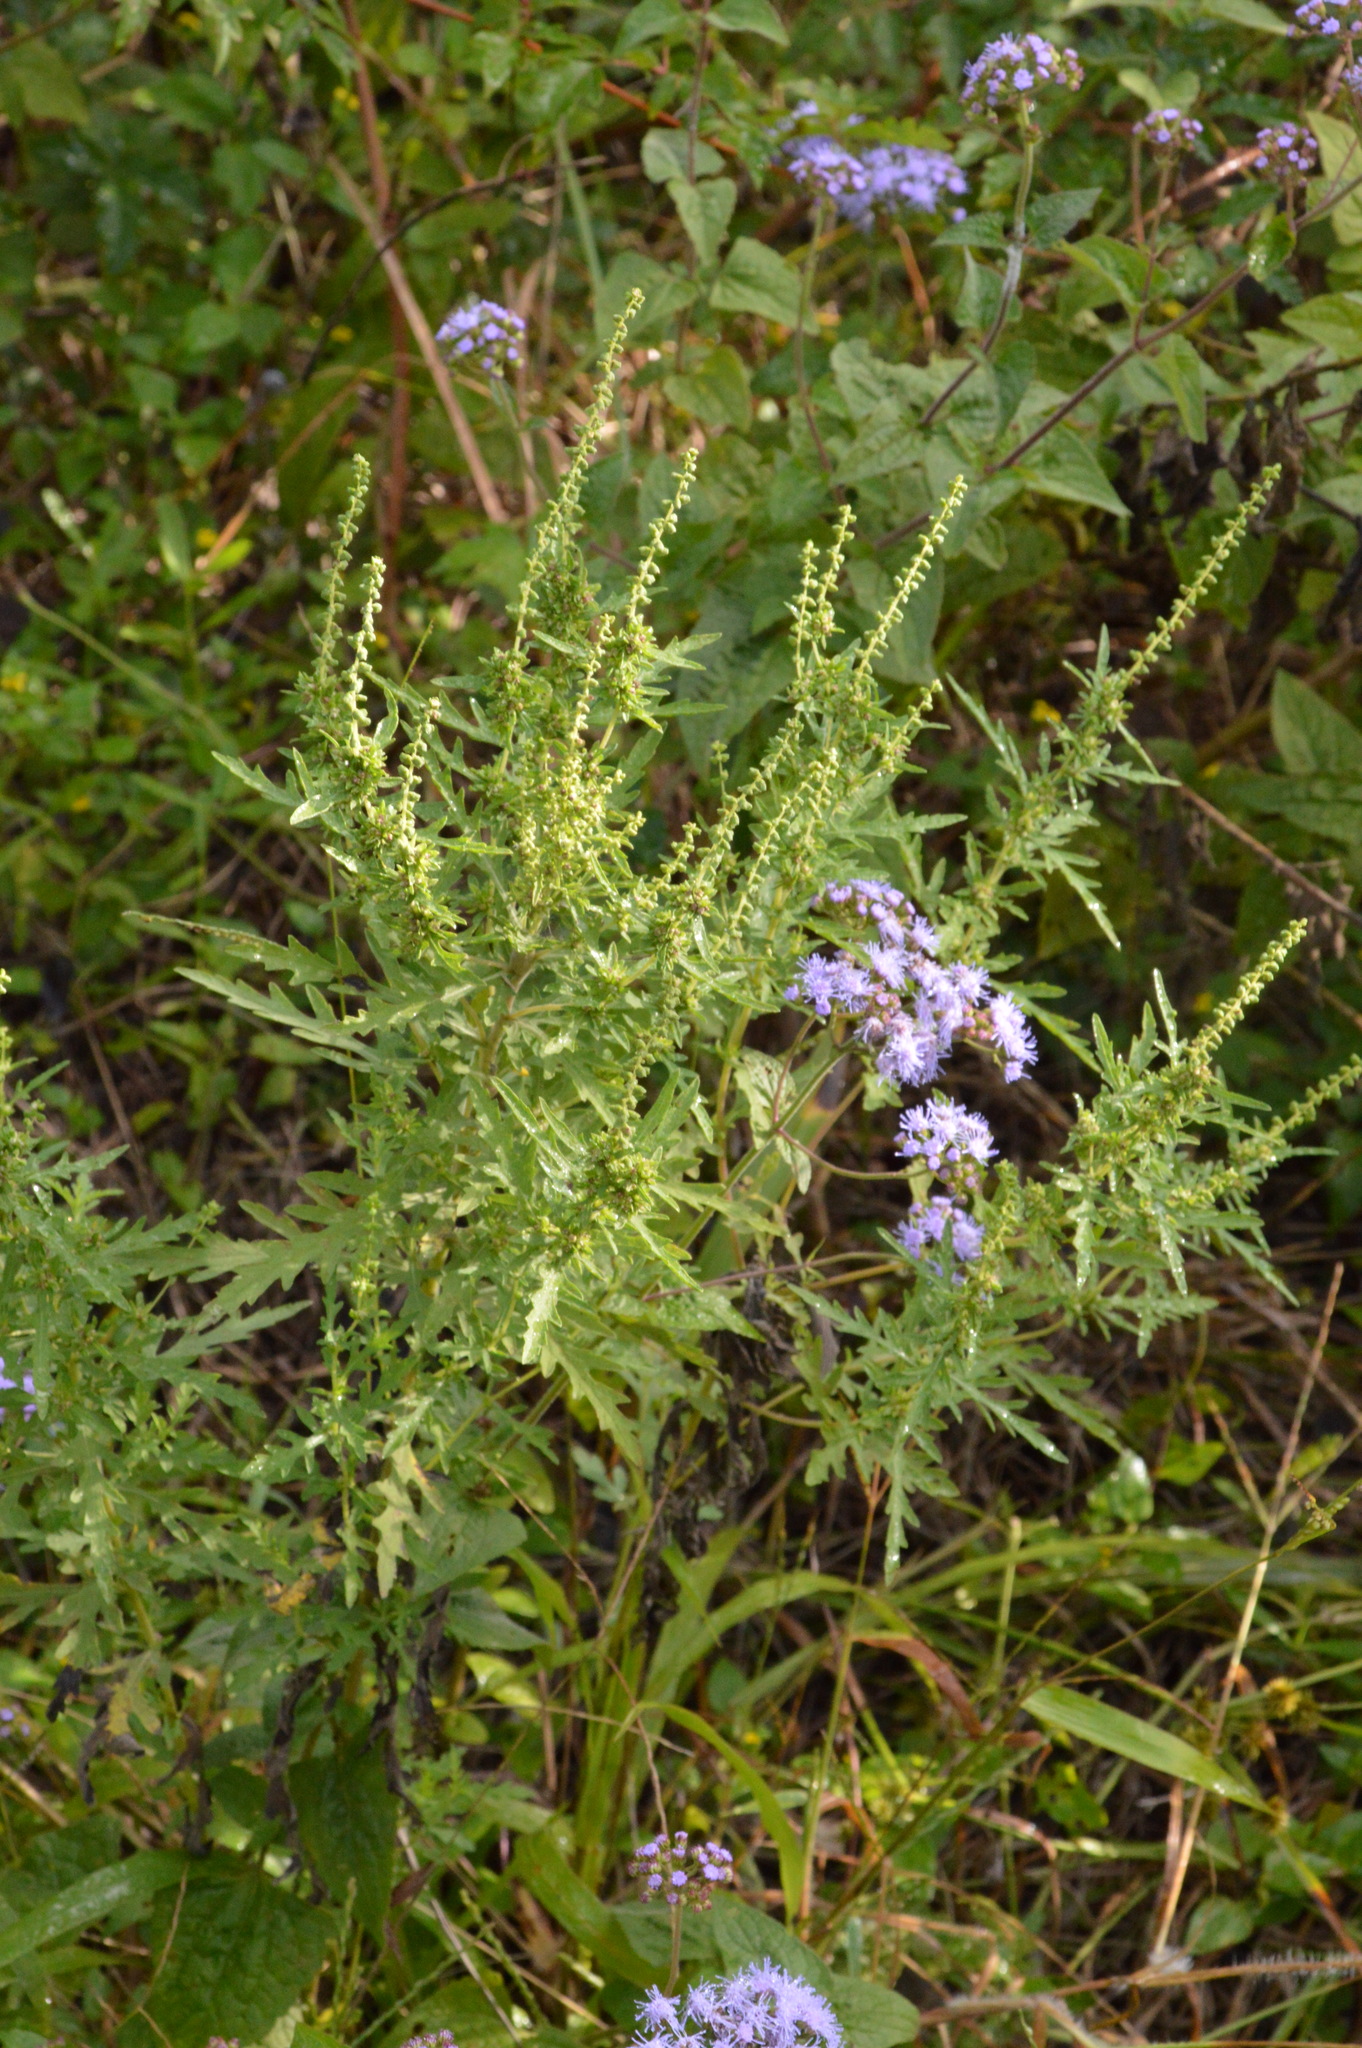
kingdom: Plantae
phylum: Tracheophyta
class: Magnoliopsida
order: Asterales
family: Asteraceae
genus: Ambrosia
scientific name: Ambrosia psilostachya
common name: Perennial ragweed
